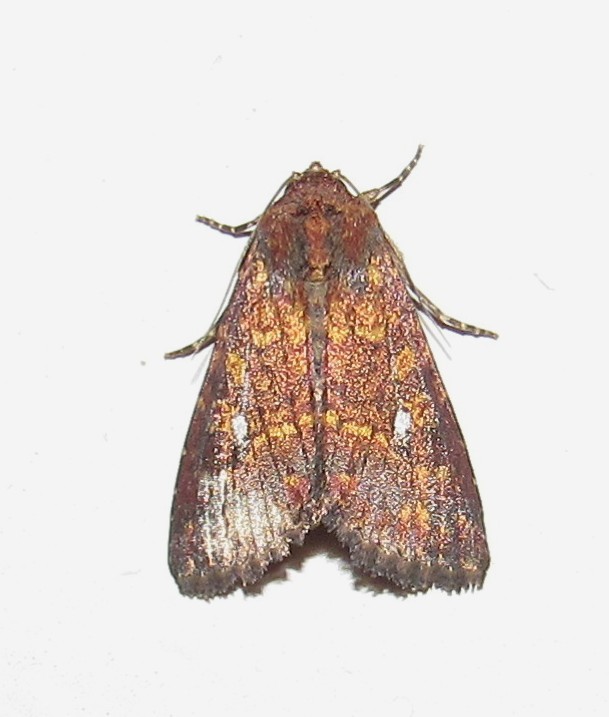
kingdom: Animalia
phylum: Arthropoda
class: Insecta
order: Lepidoptera
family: Noctuidae
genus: Condica
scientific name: Condica mobilis
